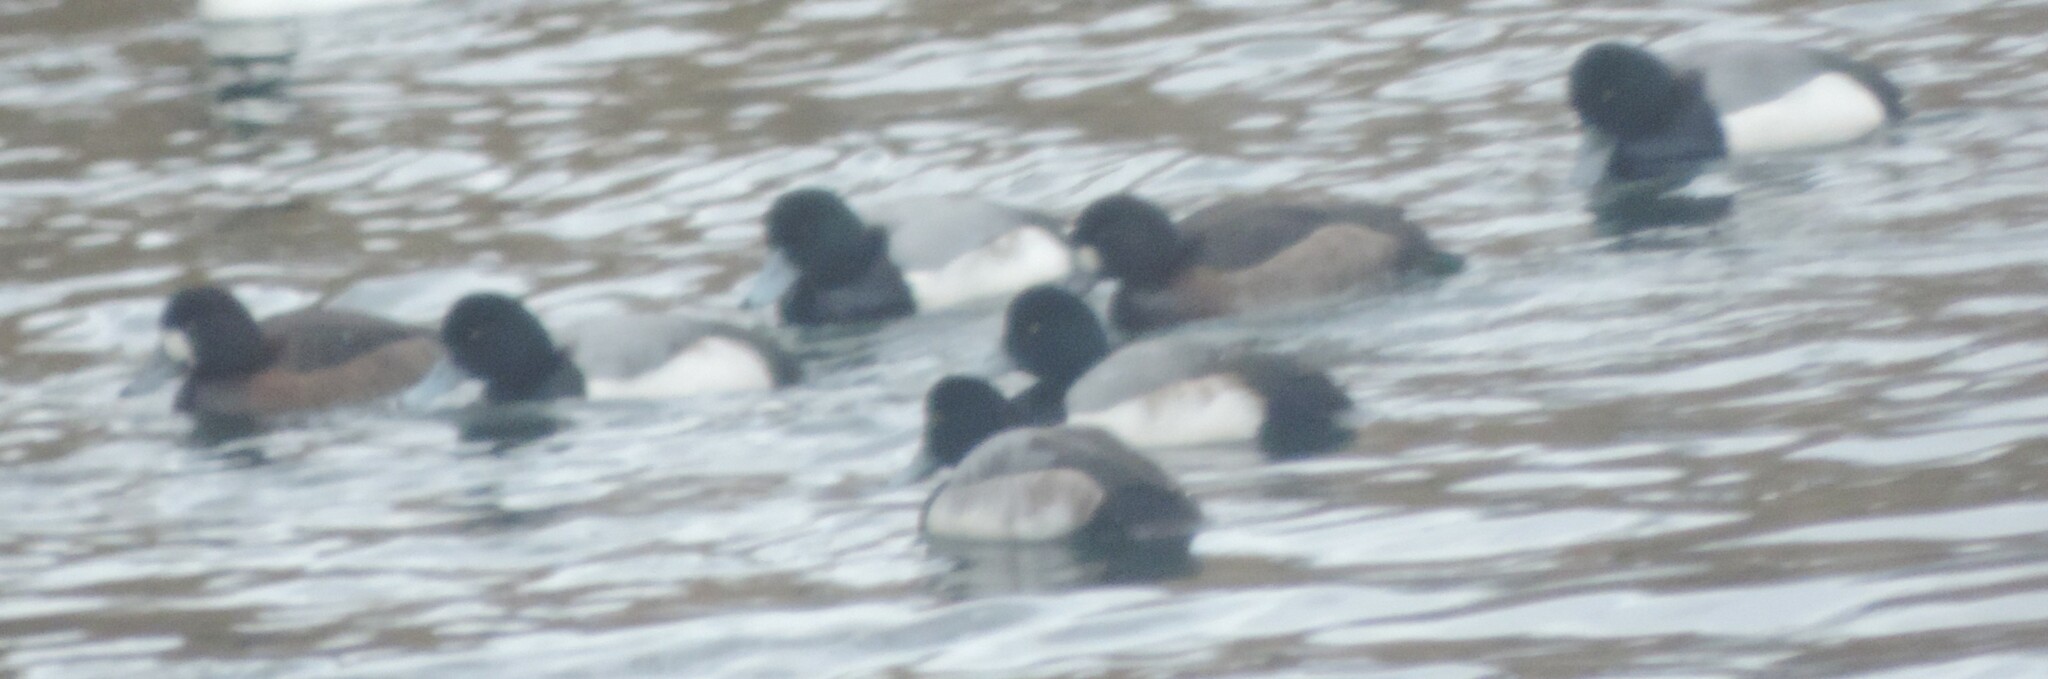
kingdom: Animalia
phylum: Chordata
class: Aves
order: Anseriformes
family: Anatidae
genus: Aythya
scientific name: Aythya marila
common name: Greater scaup
